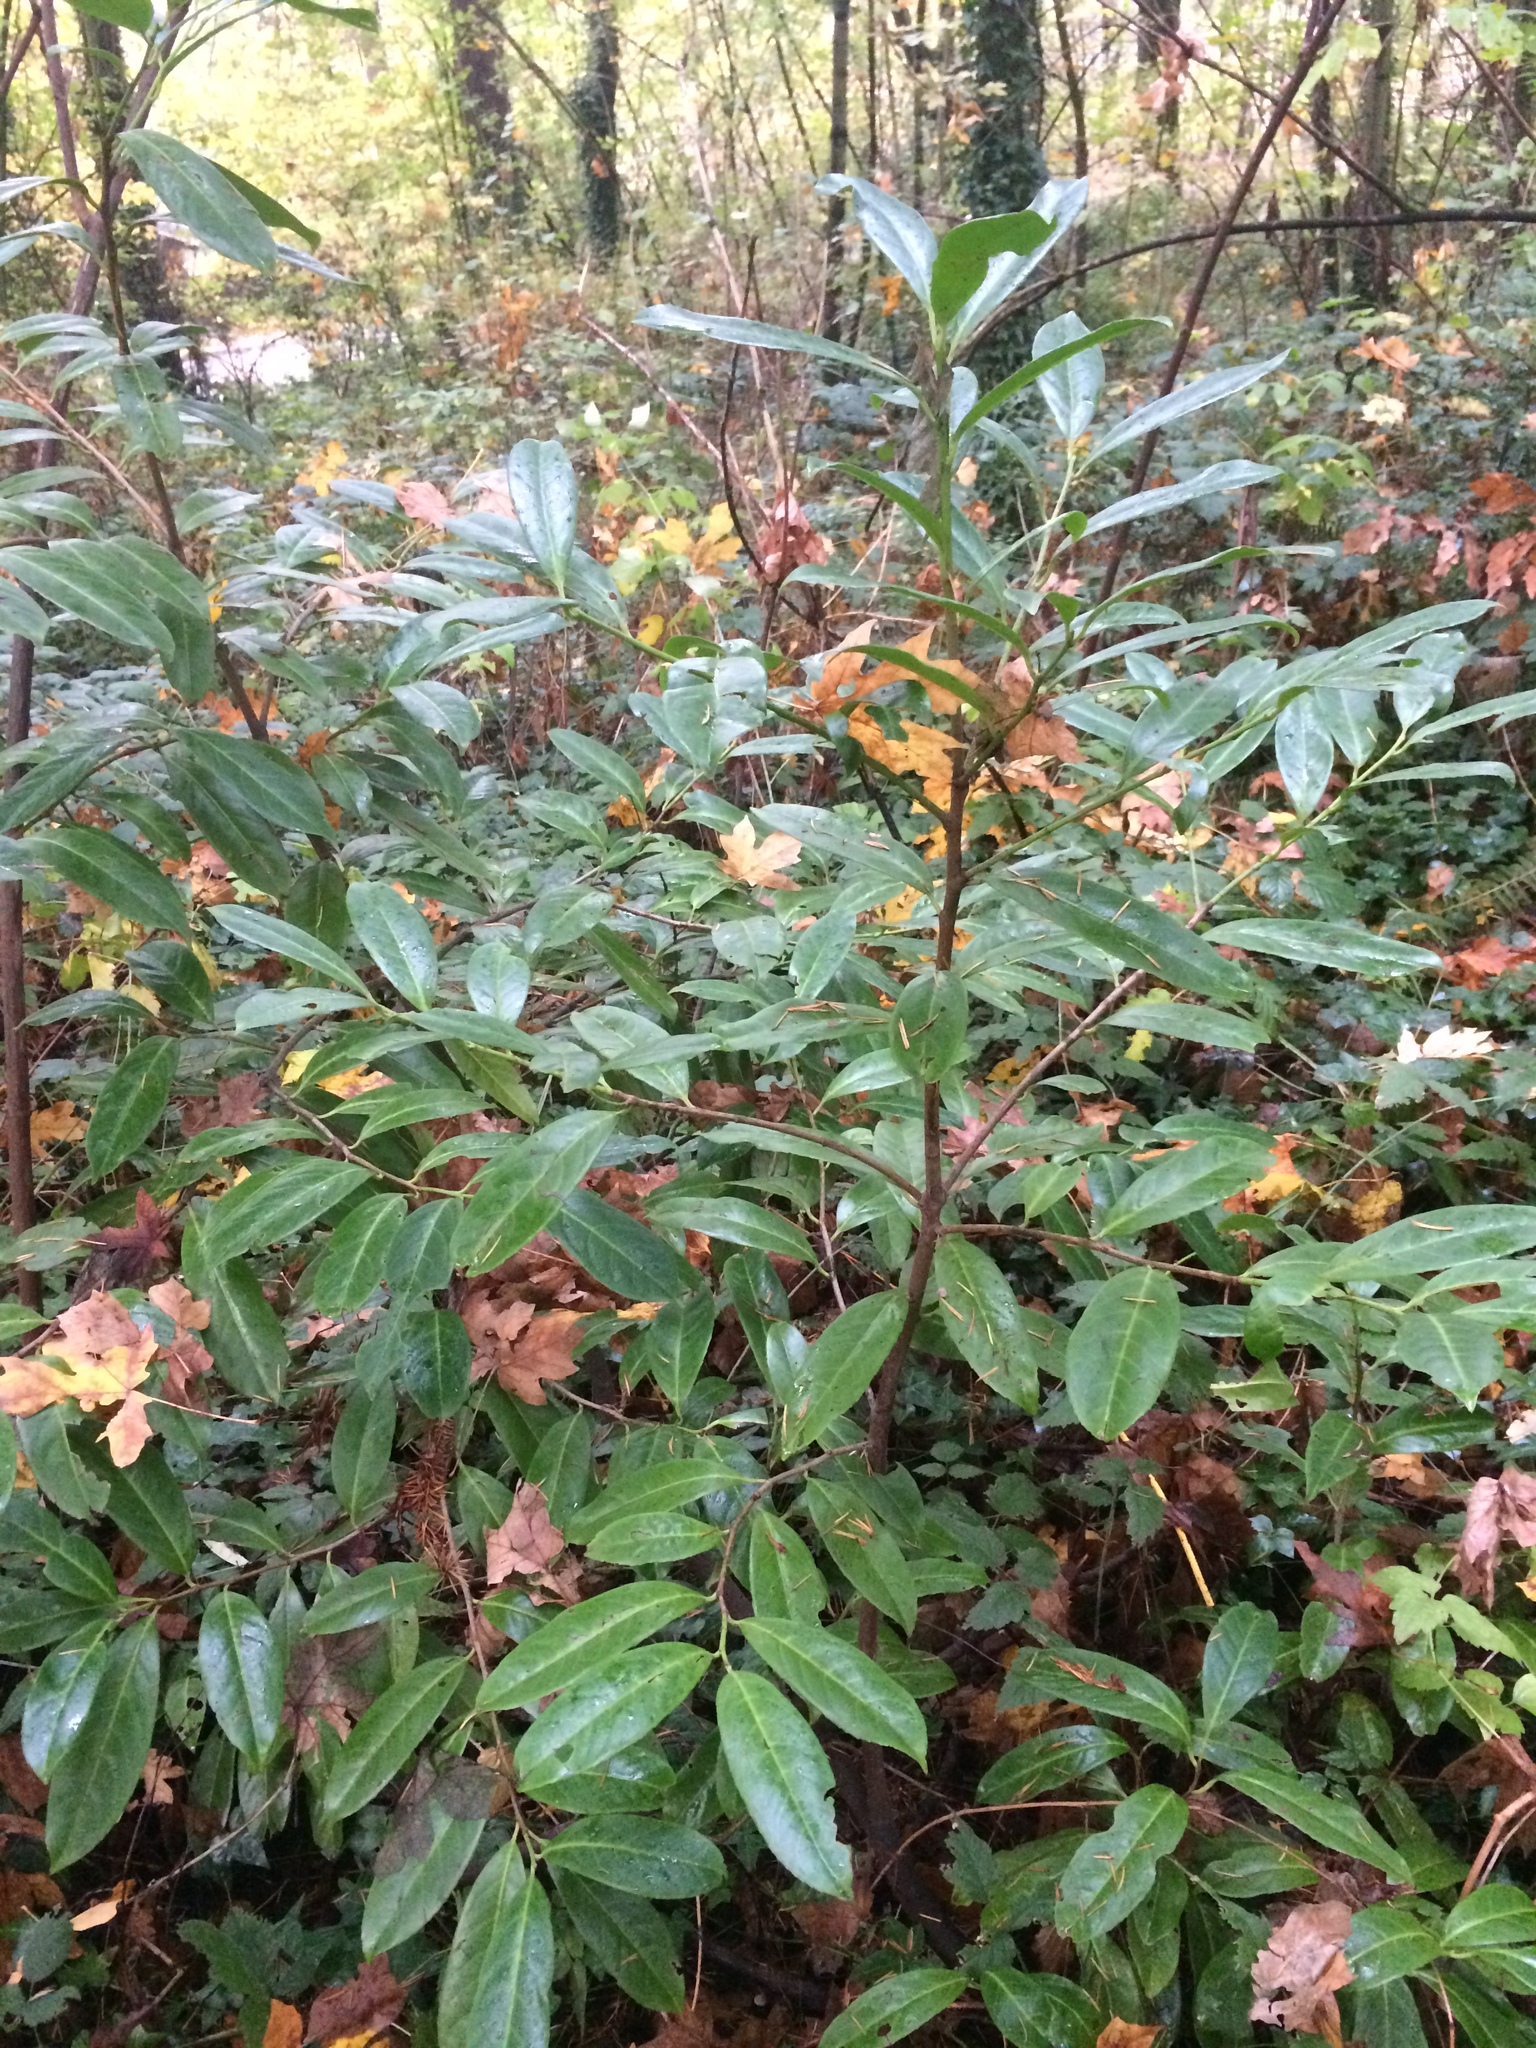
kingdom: Plantae
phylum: Tracheophyta
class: Magnoliopsida
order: Rosales
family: Rosaceae
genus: Prunus
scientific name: Prunus laurocerasus
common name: Cherry laurel
